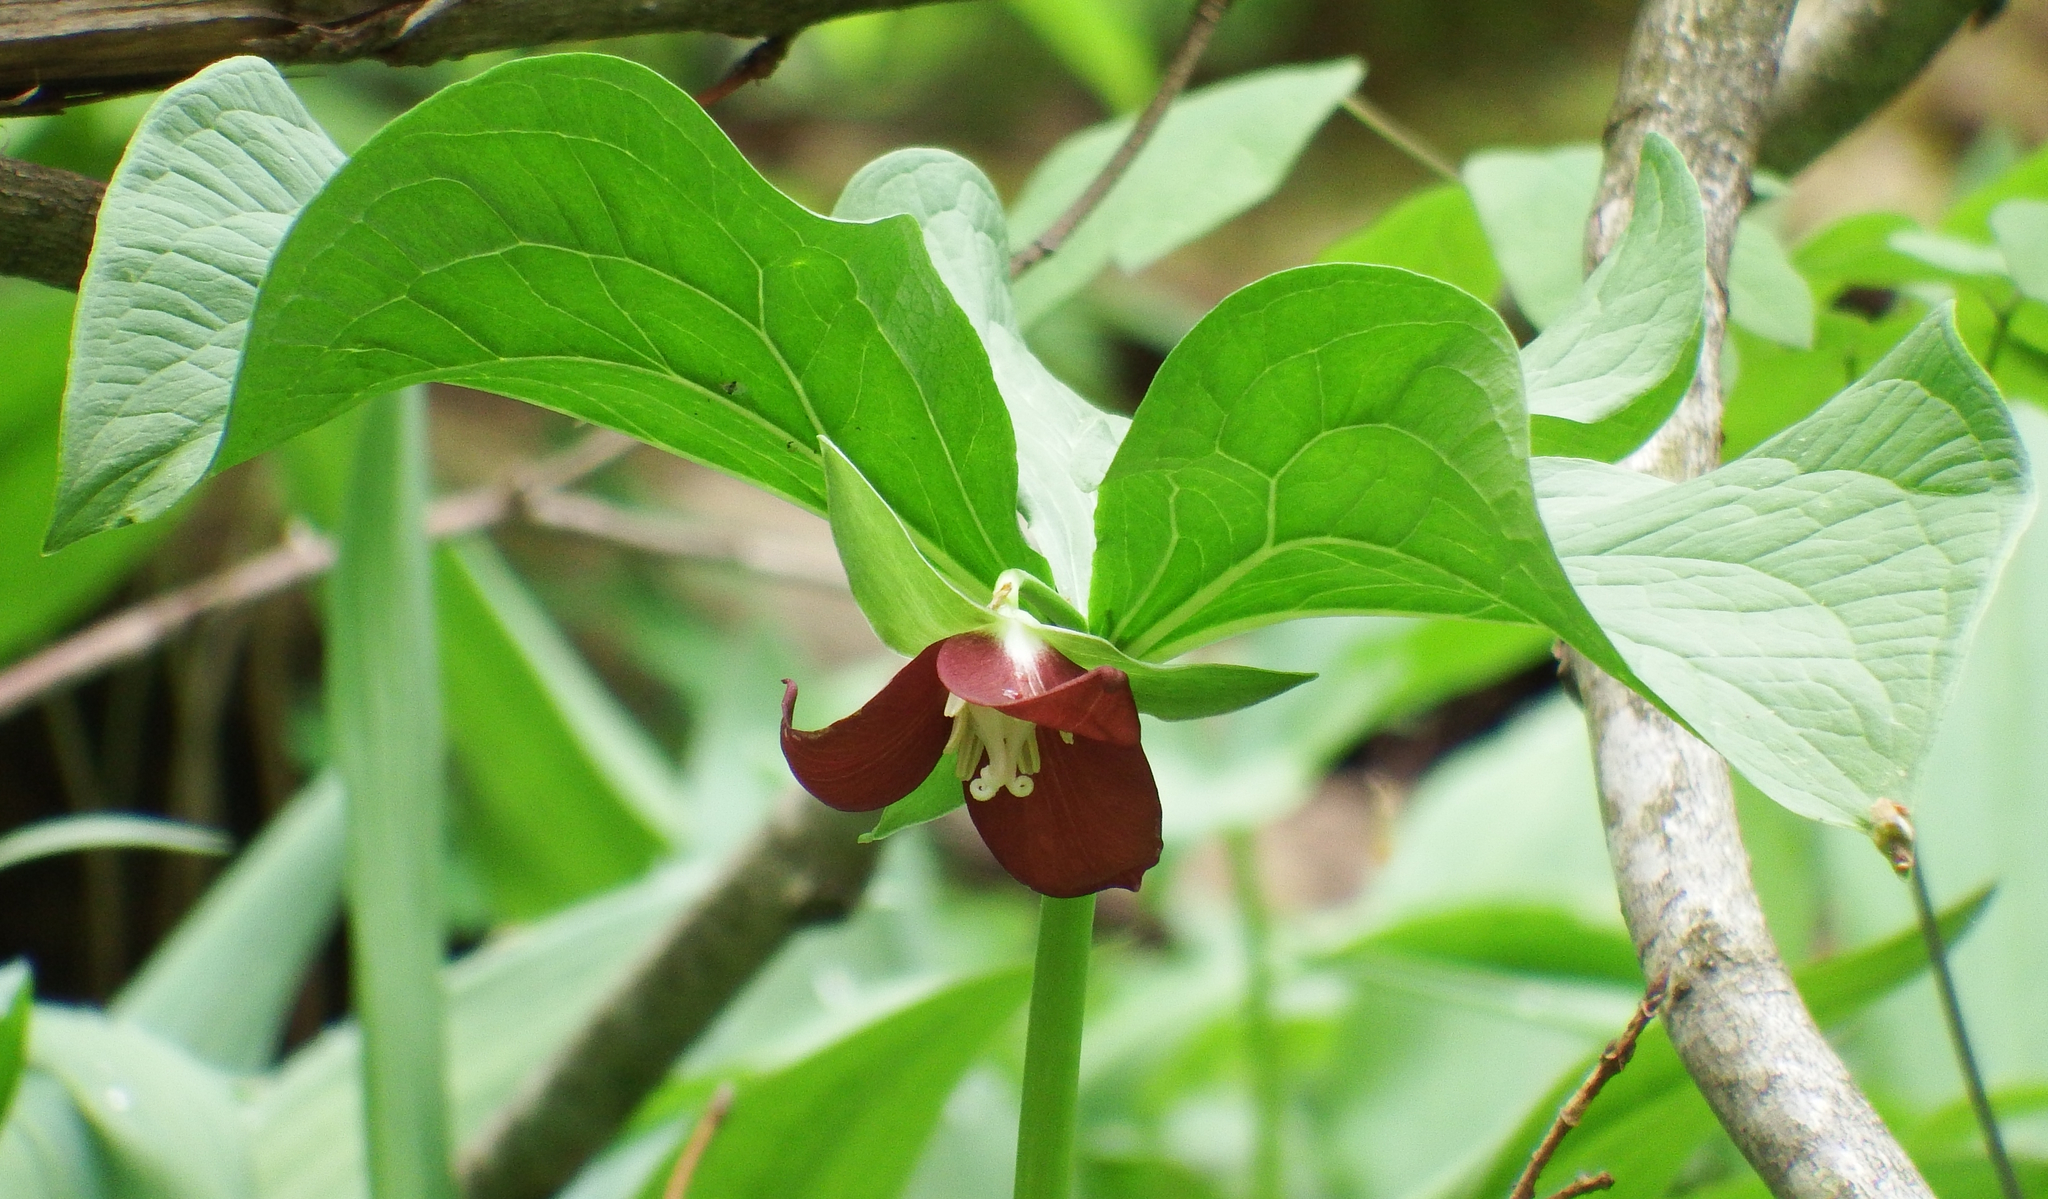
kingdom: Plantae
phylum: Tracheophyta
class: Liliopsida
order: Liliales
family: Melanthiaceae
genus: Trillium
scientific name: Trillium flexipes
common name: Drooping trillium
